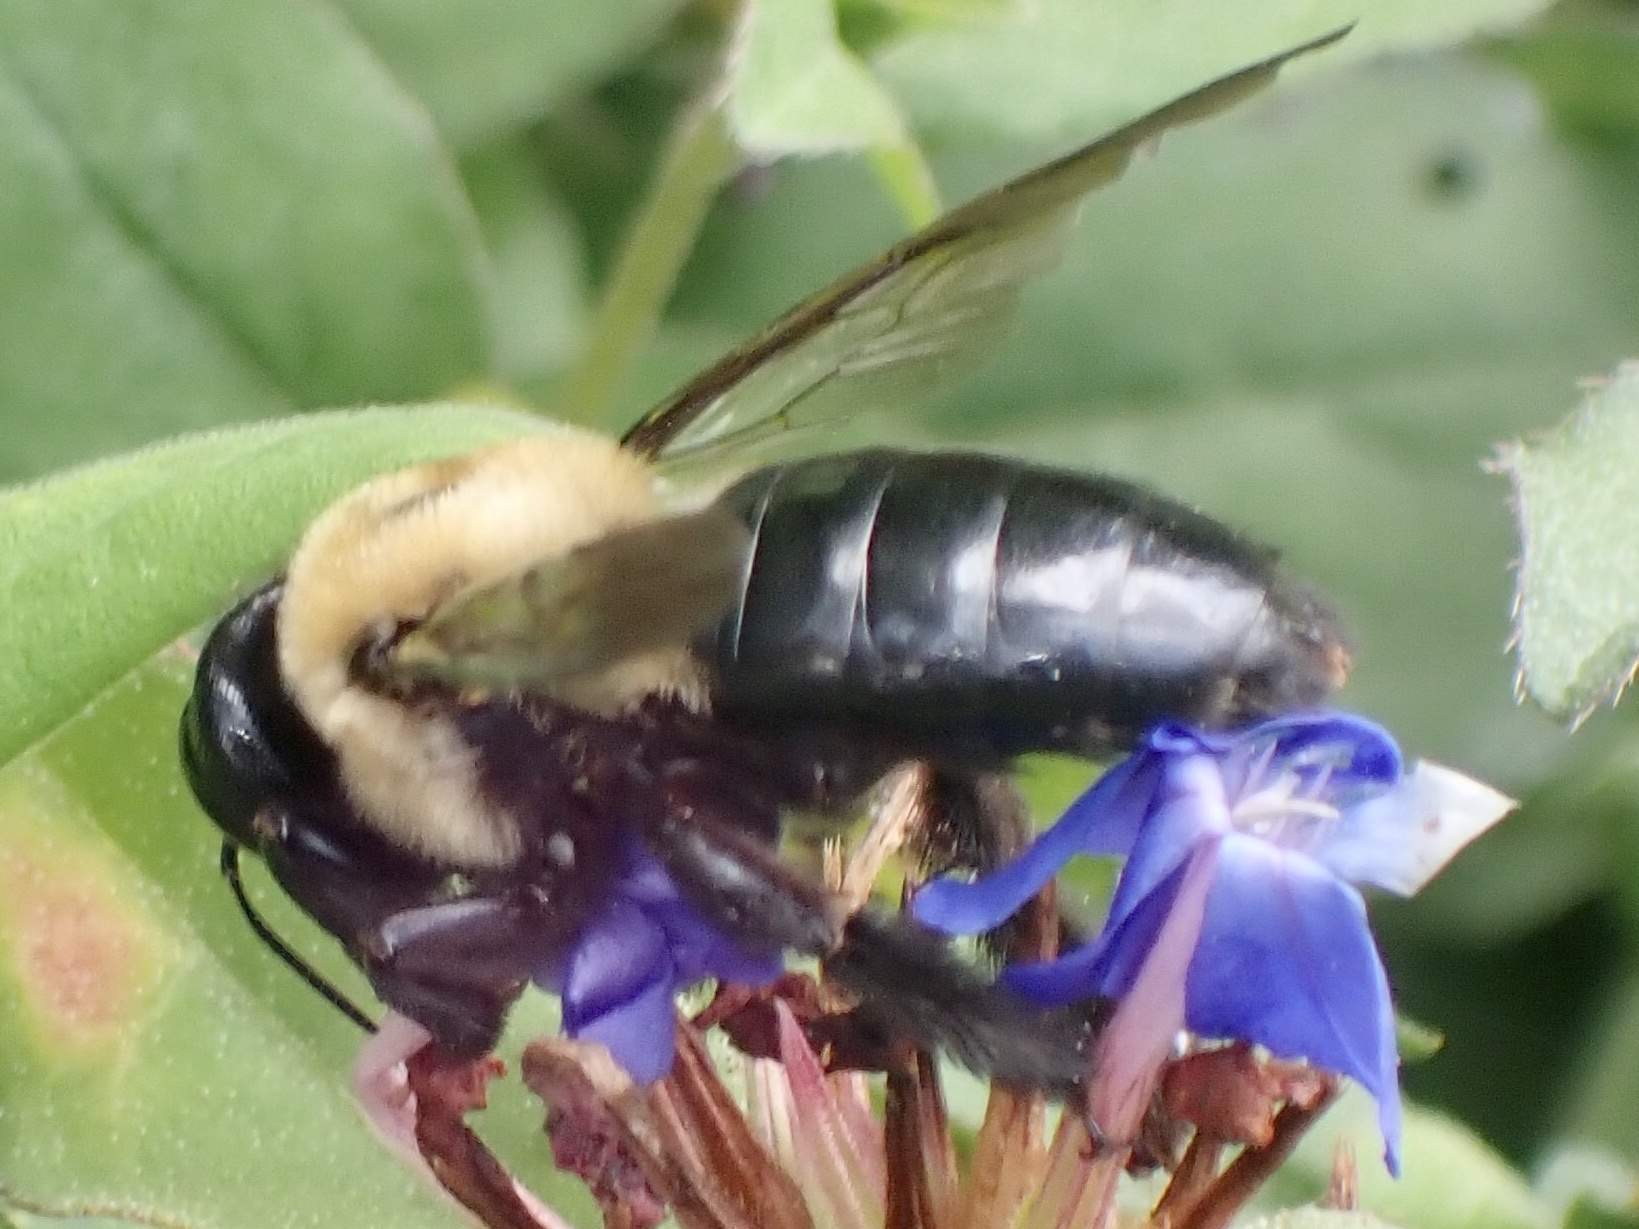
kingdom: Animalia
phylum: Arthropoda
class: Insecta
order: Hymenoptera
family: Apidae
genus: Xylocopa
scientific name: Xylocopa virginica
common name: Carpenter bee
